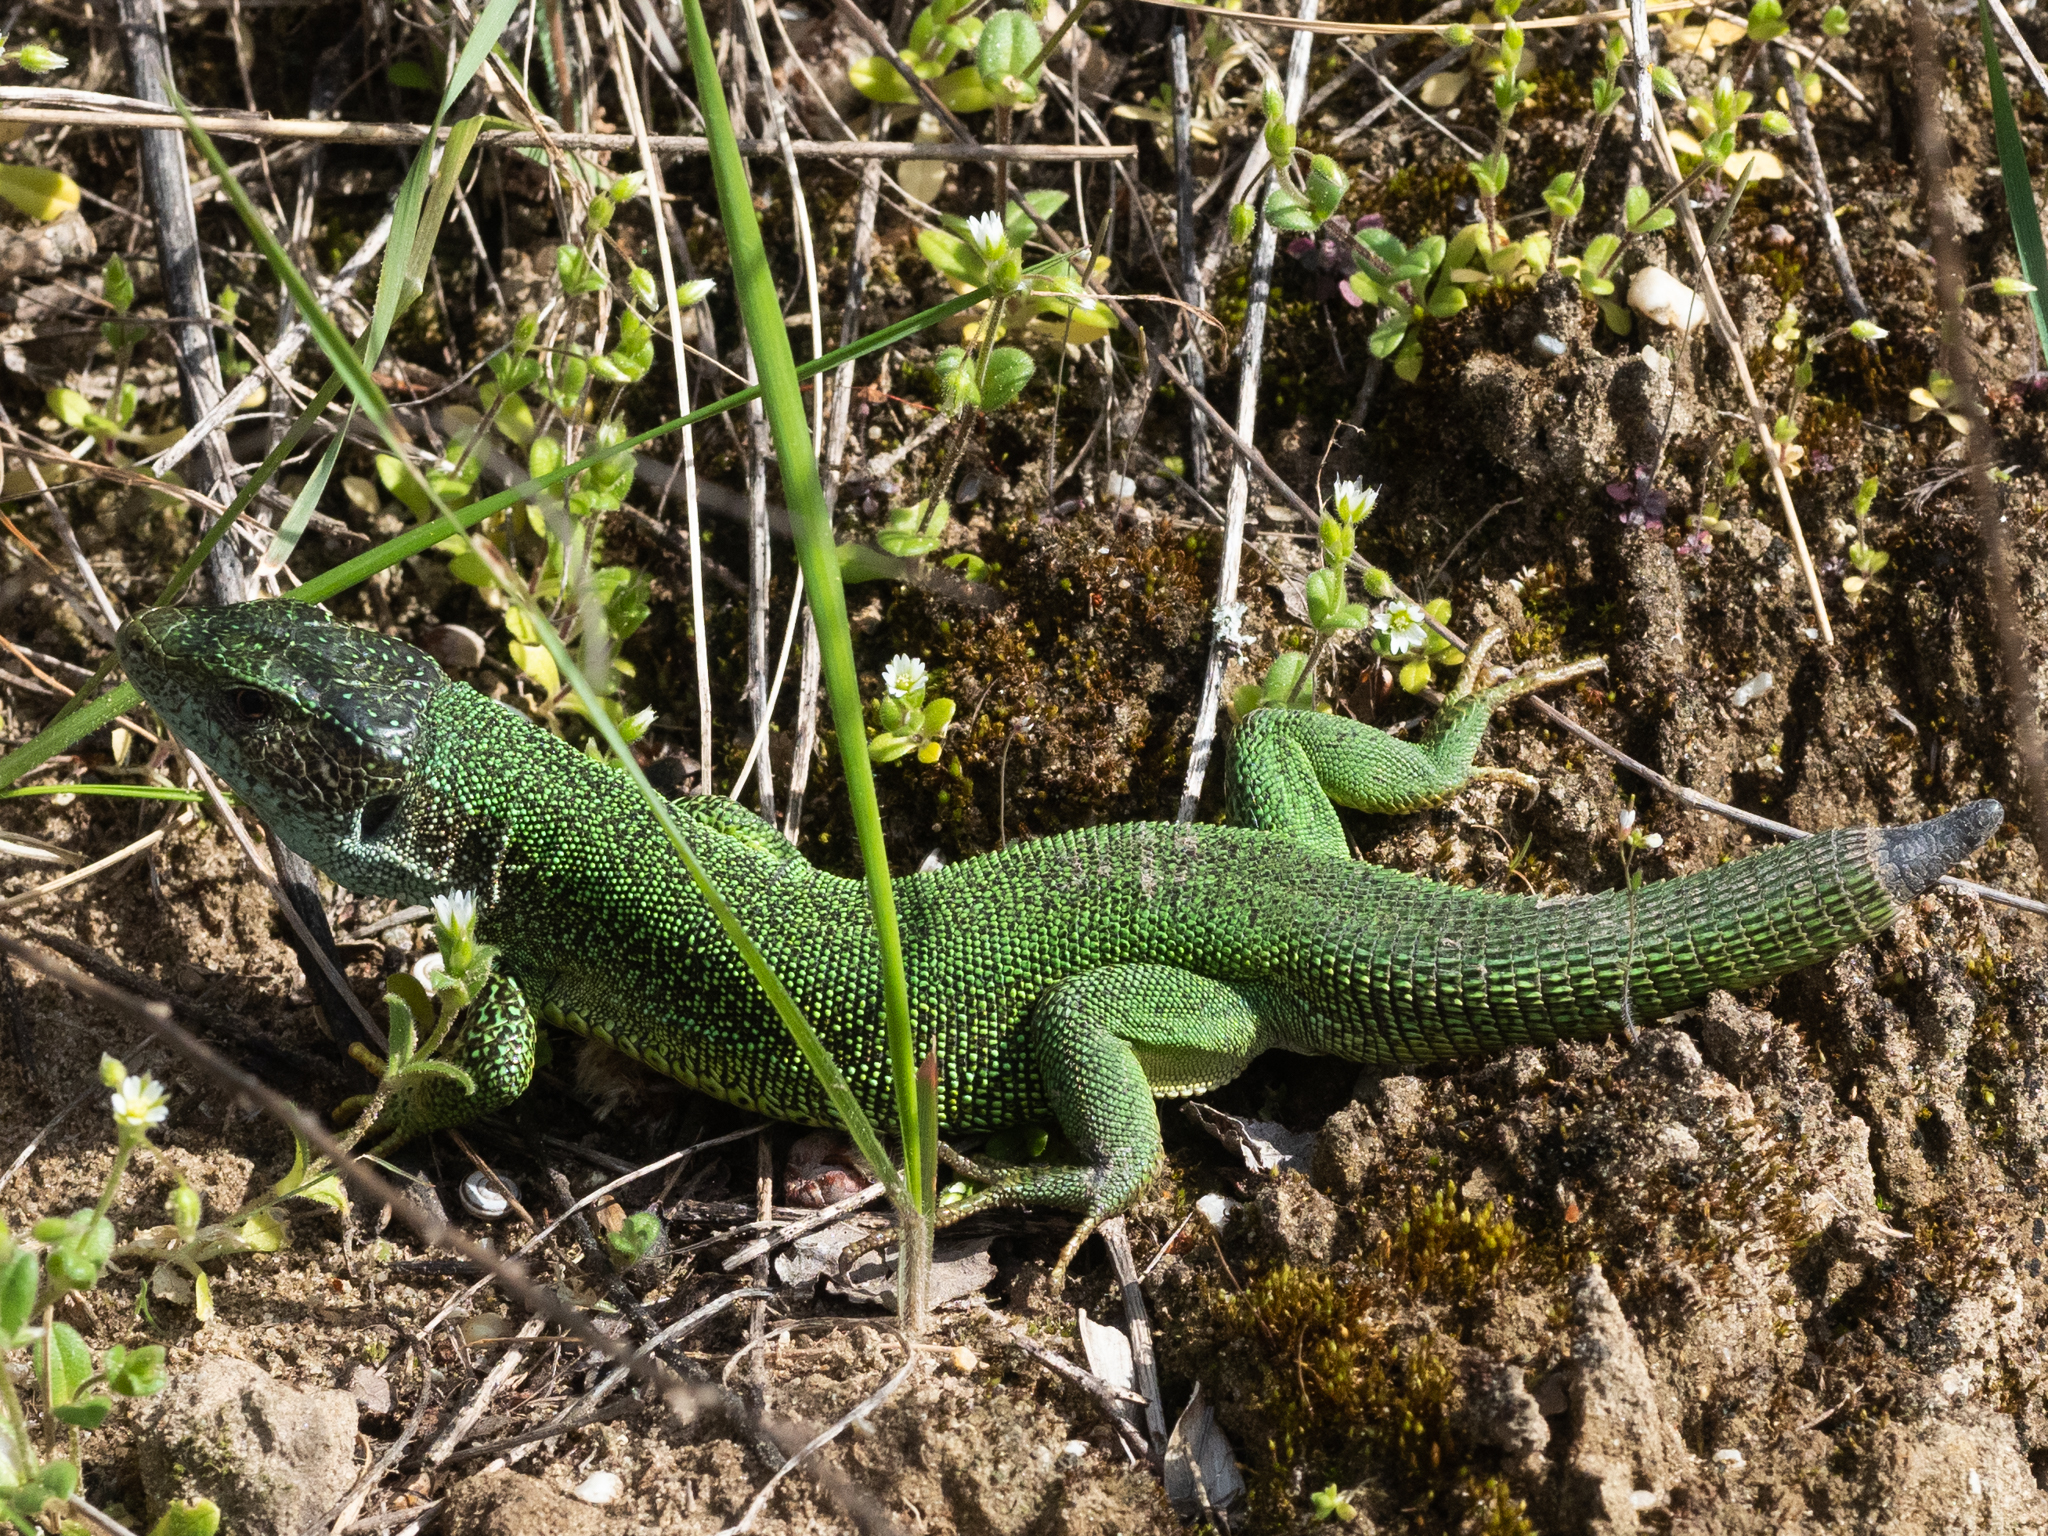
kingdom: Animalia
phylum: Chordata
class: Squamata
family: Lacertidae
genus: Lacerta
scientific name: Lacerta viridis
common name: European green lizard
